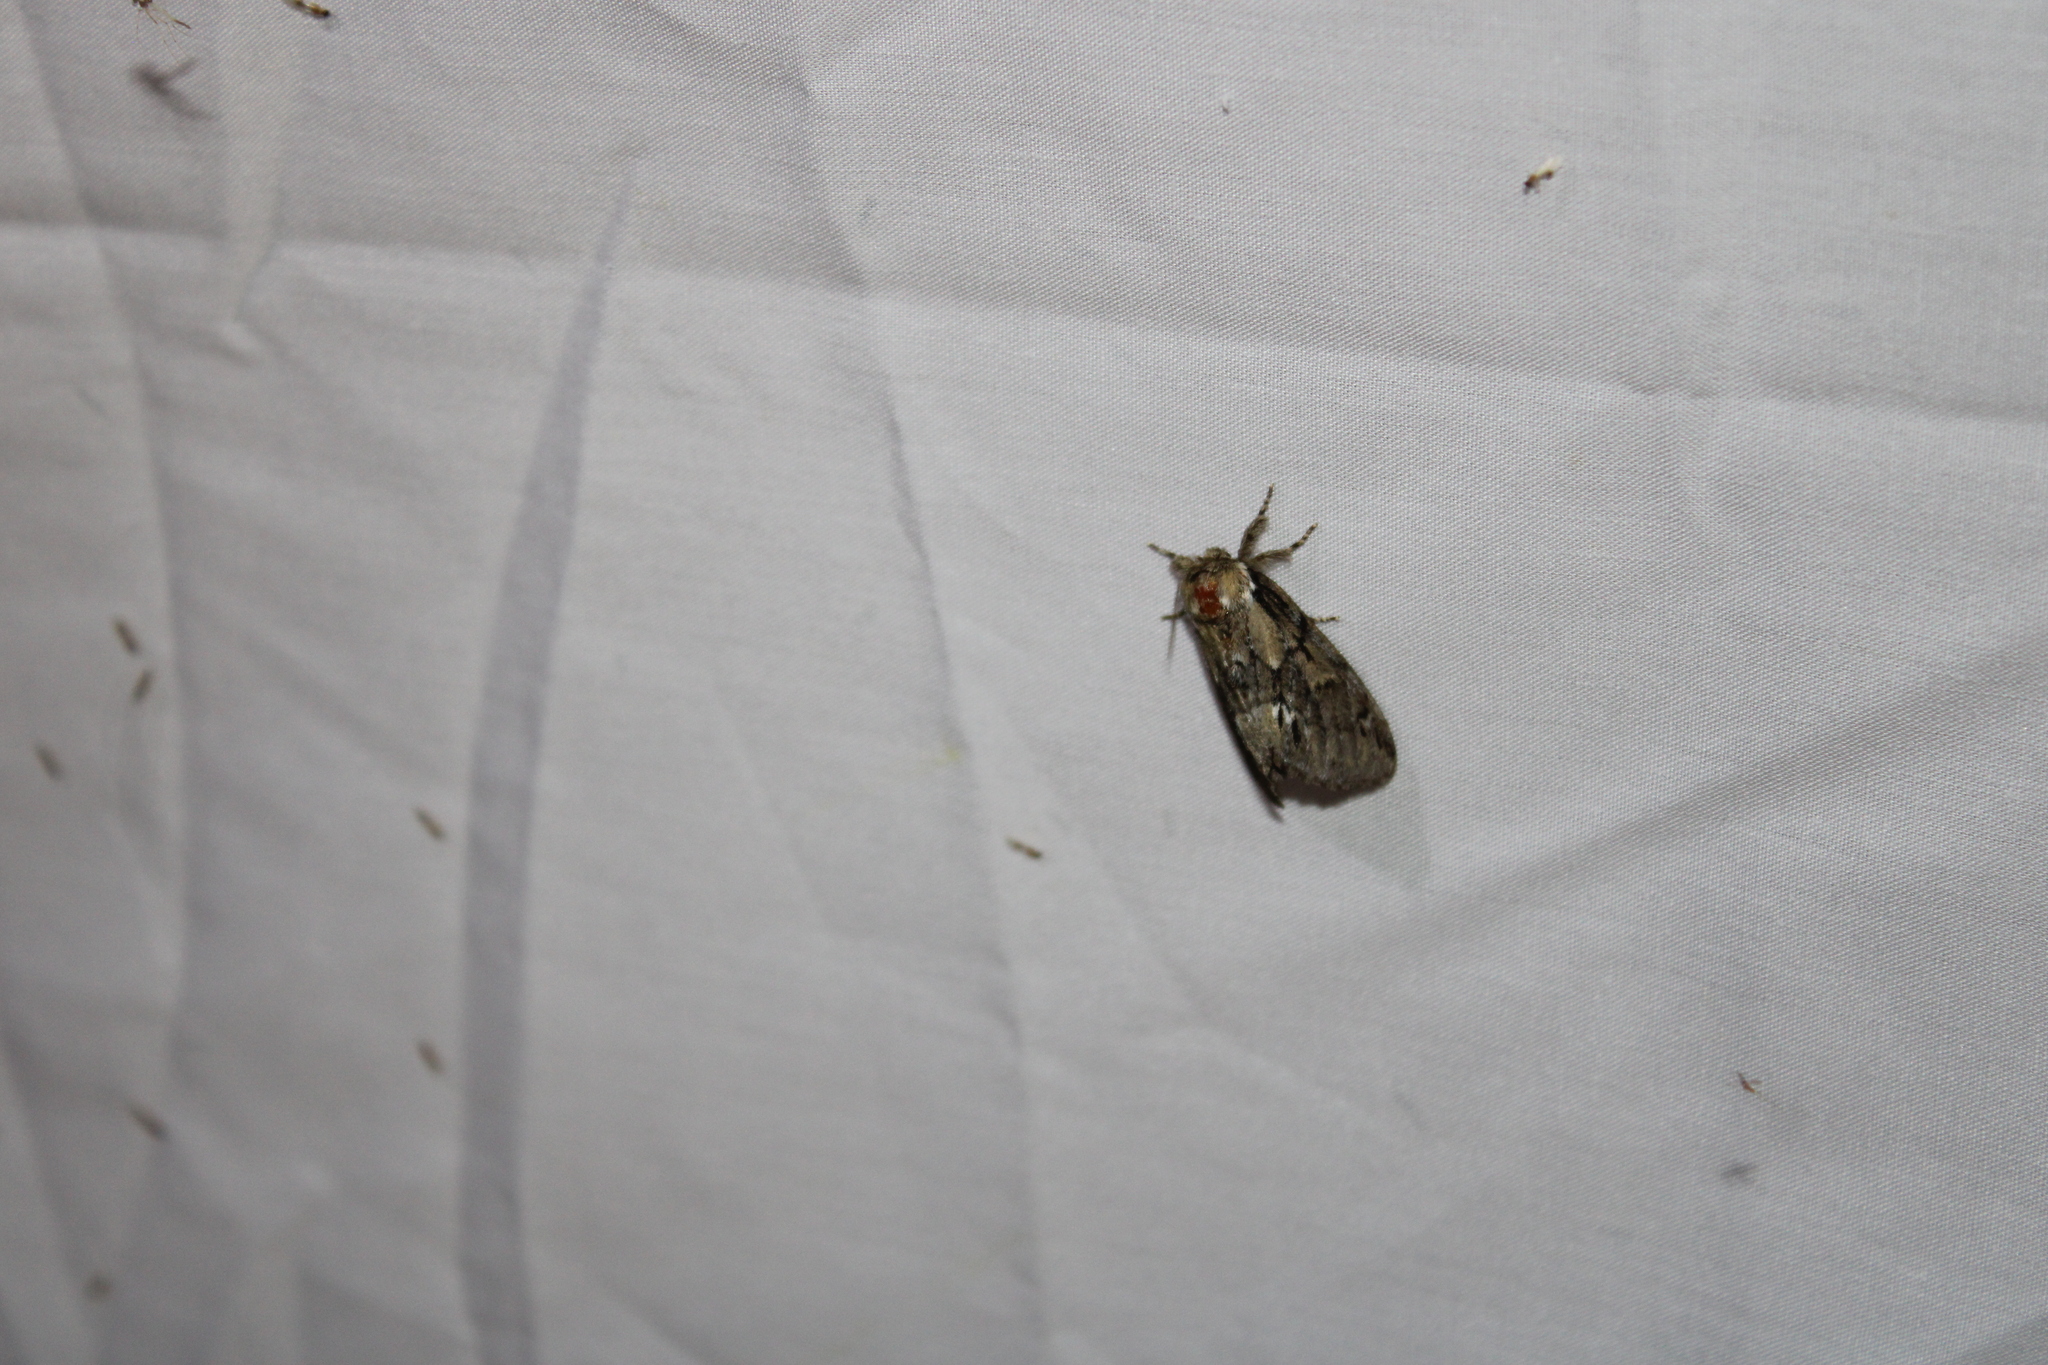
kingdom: Animalia
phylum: Arthropoda
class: Insecta
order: Lepidoptera
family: Notodontidae
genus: Paraeschra
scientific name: Paraeschra georgica
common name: Georgian prominent
